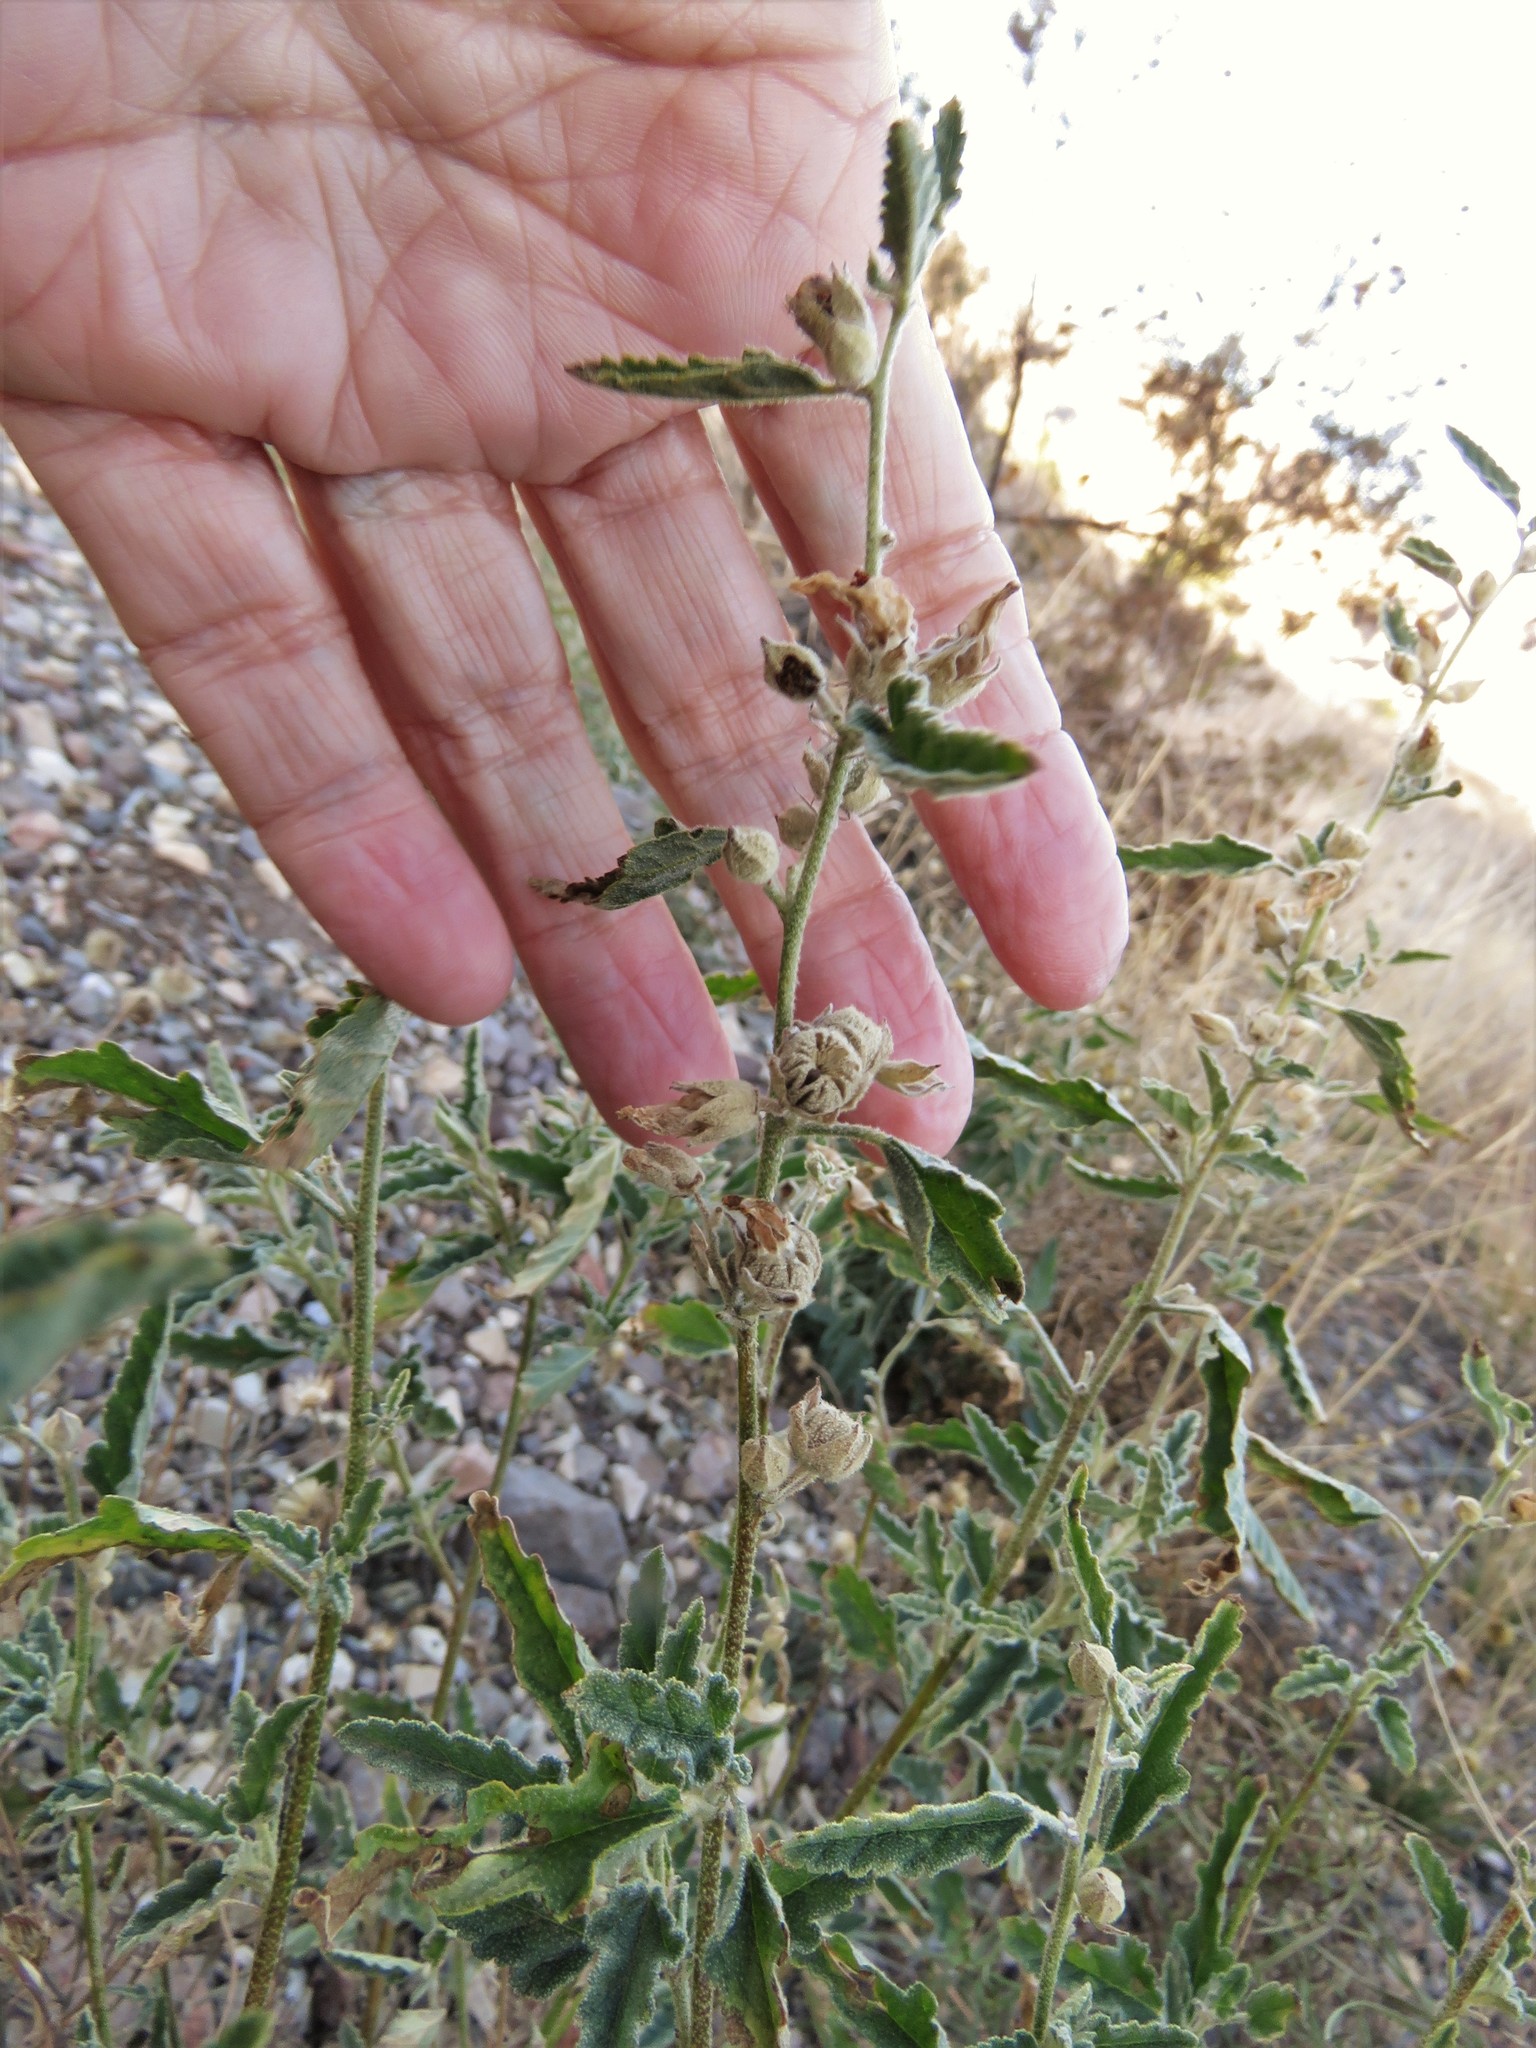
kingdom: Plantae
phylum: Tracheophyta
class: Magnoliopsida
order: Malvales
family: Malvaceae
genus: Sphaeralcea
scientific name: Sphaeralcea angustifolia
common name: Copper globe-mallow
